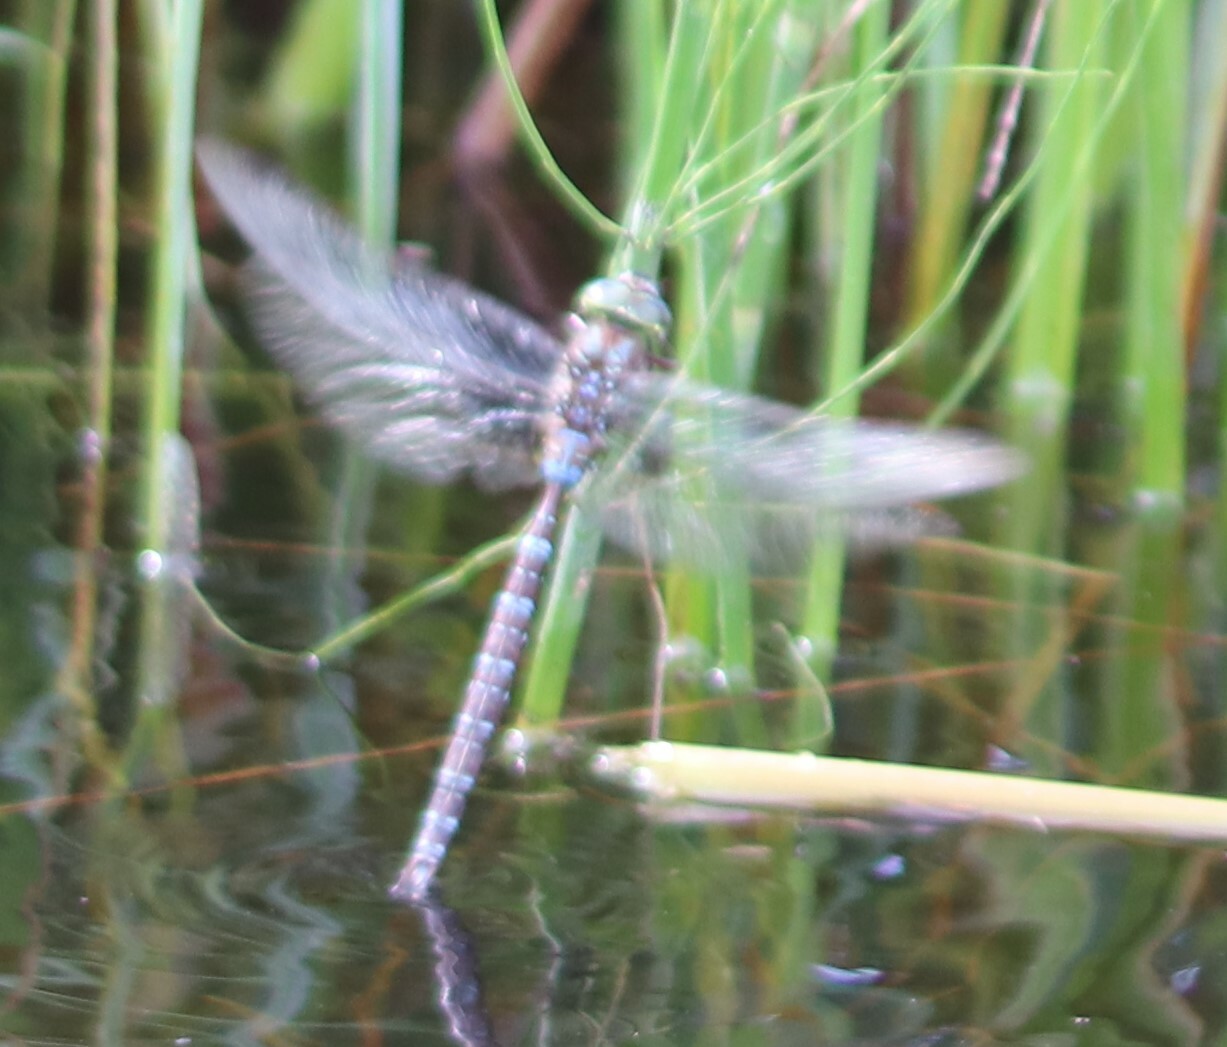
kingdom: Animalia
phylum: Arthropoda
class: Insecta
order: Odonata
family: Aeshnidae
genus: Aeshna
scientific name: Aeshna umbrosa
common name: Shadow darner
